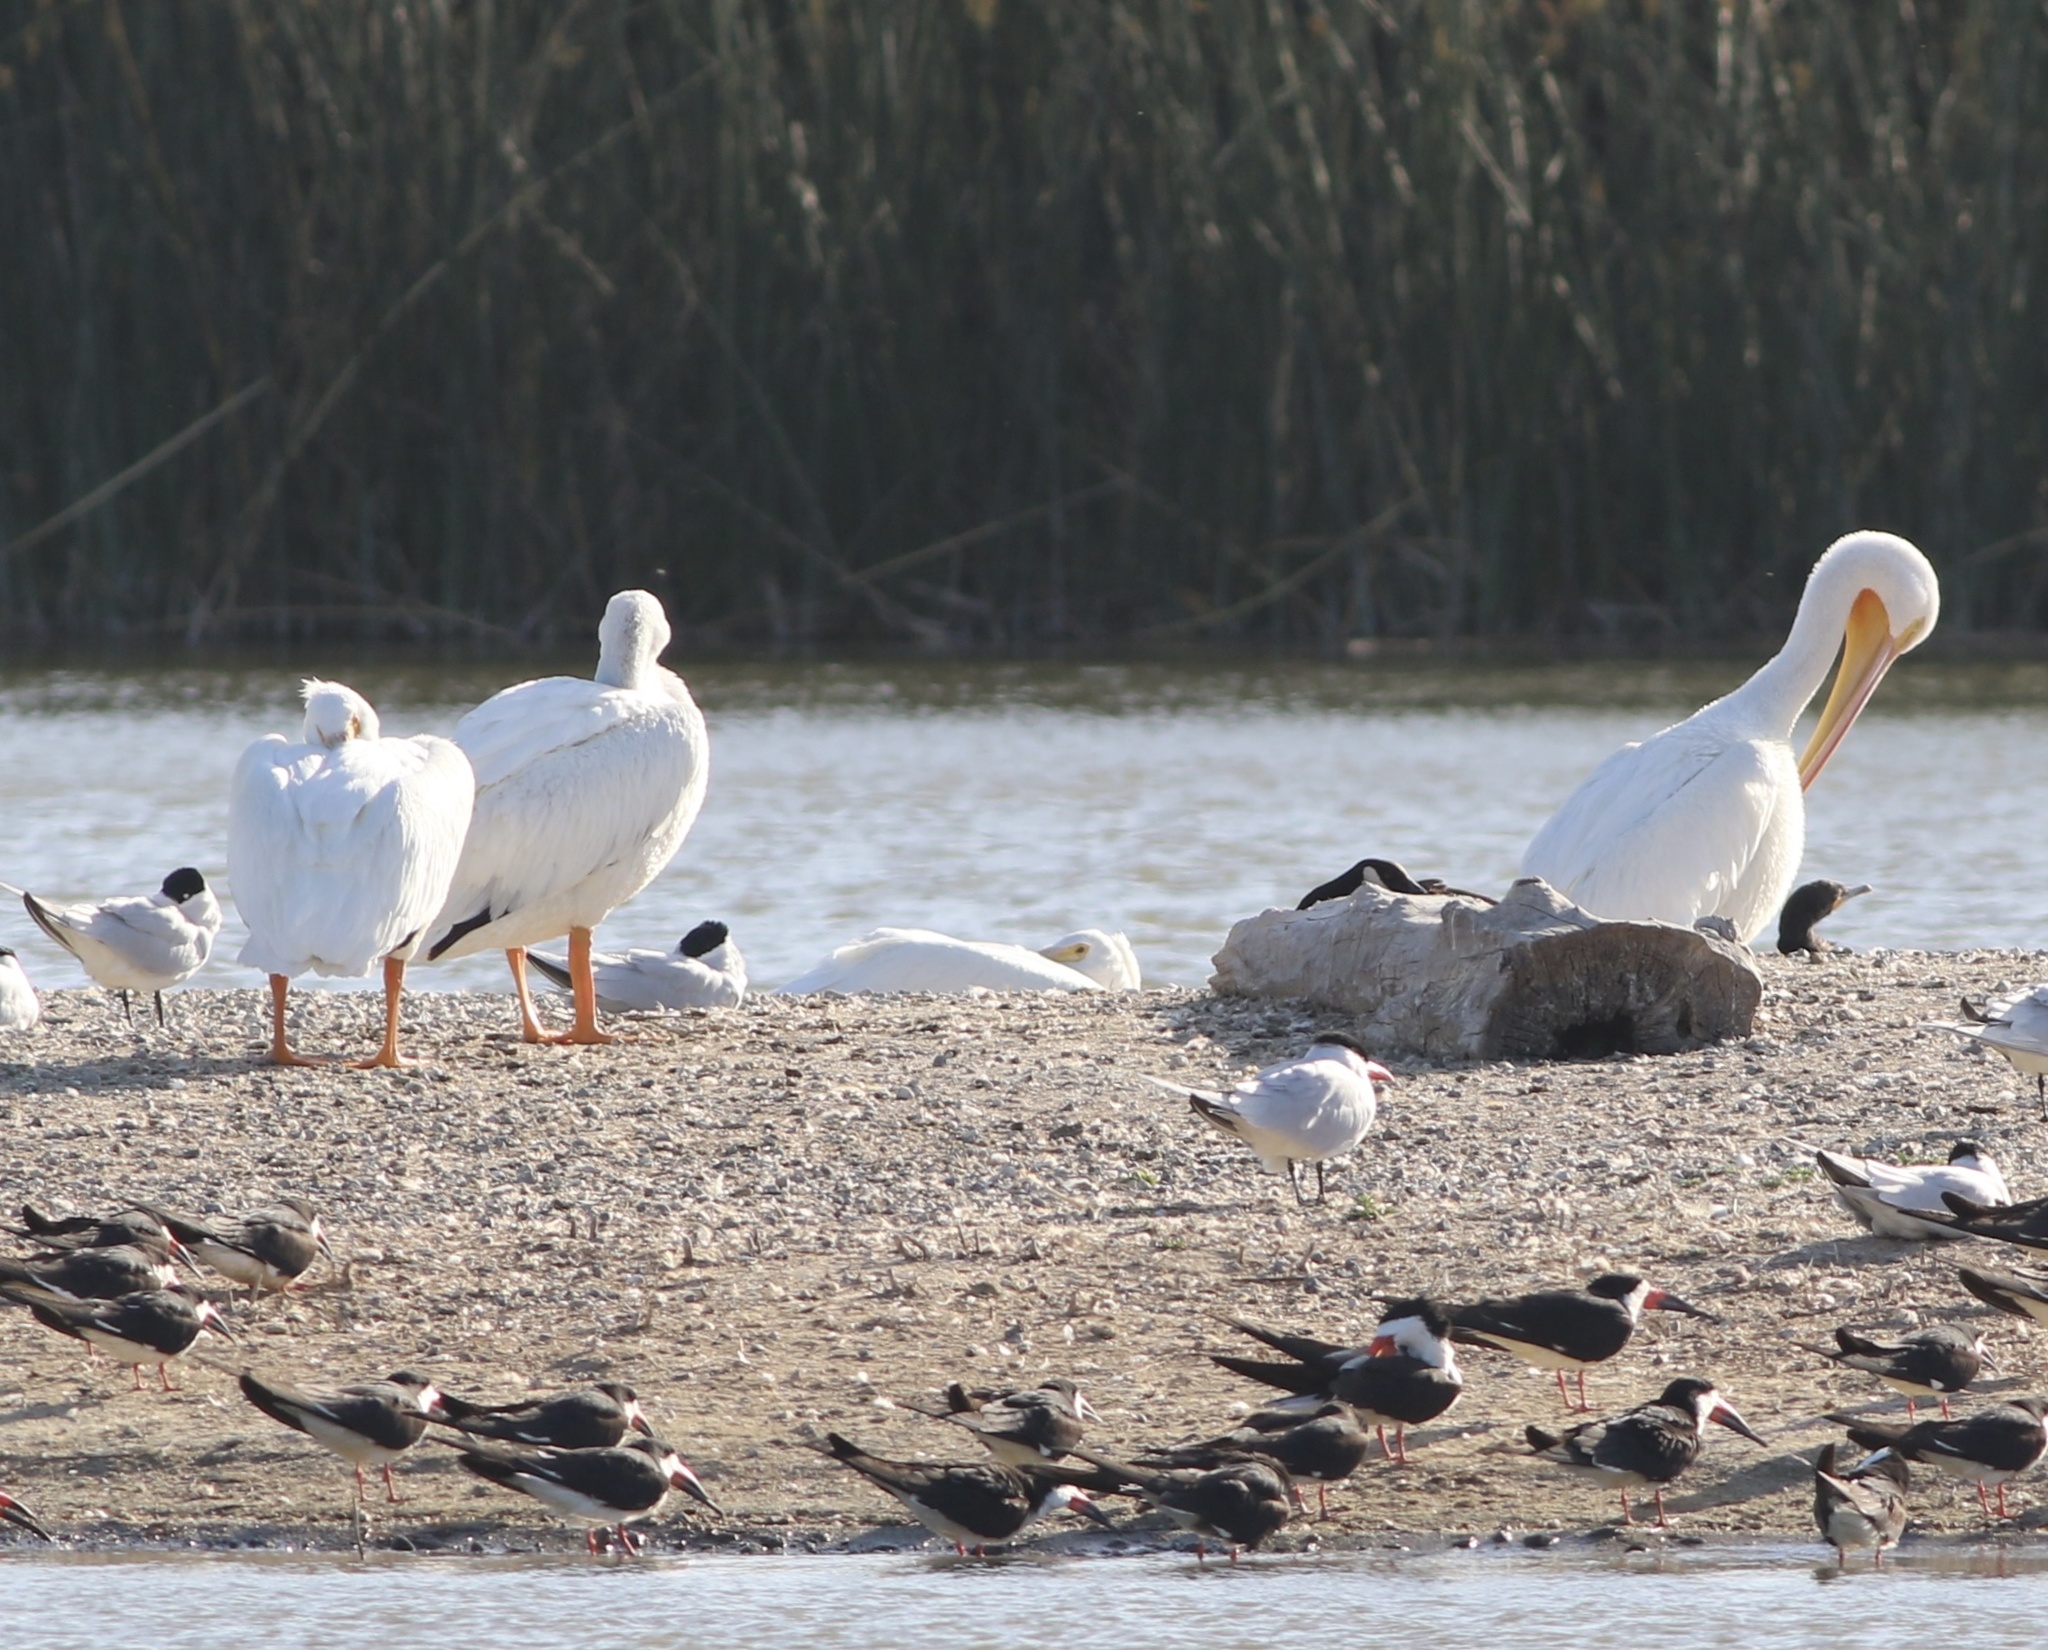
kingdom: Animalia
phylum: Chordata
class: Aves
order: Pelecaniformes
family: Pelecanidae
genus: Pelecanus
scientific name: Pelecanus erythrorhynchos
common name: American white pelican
